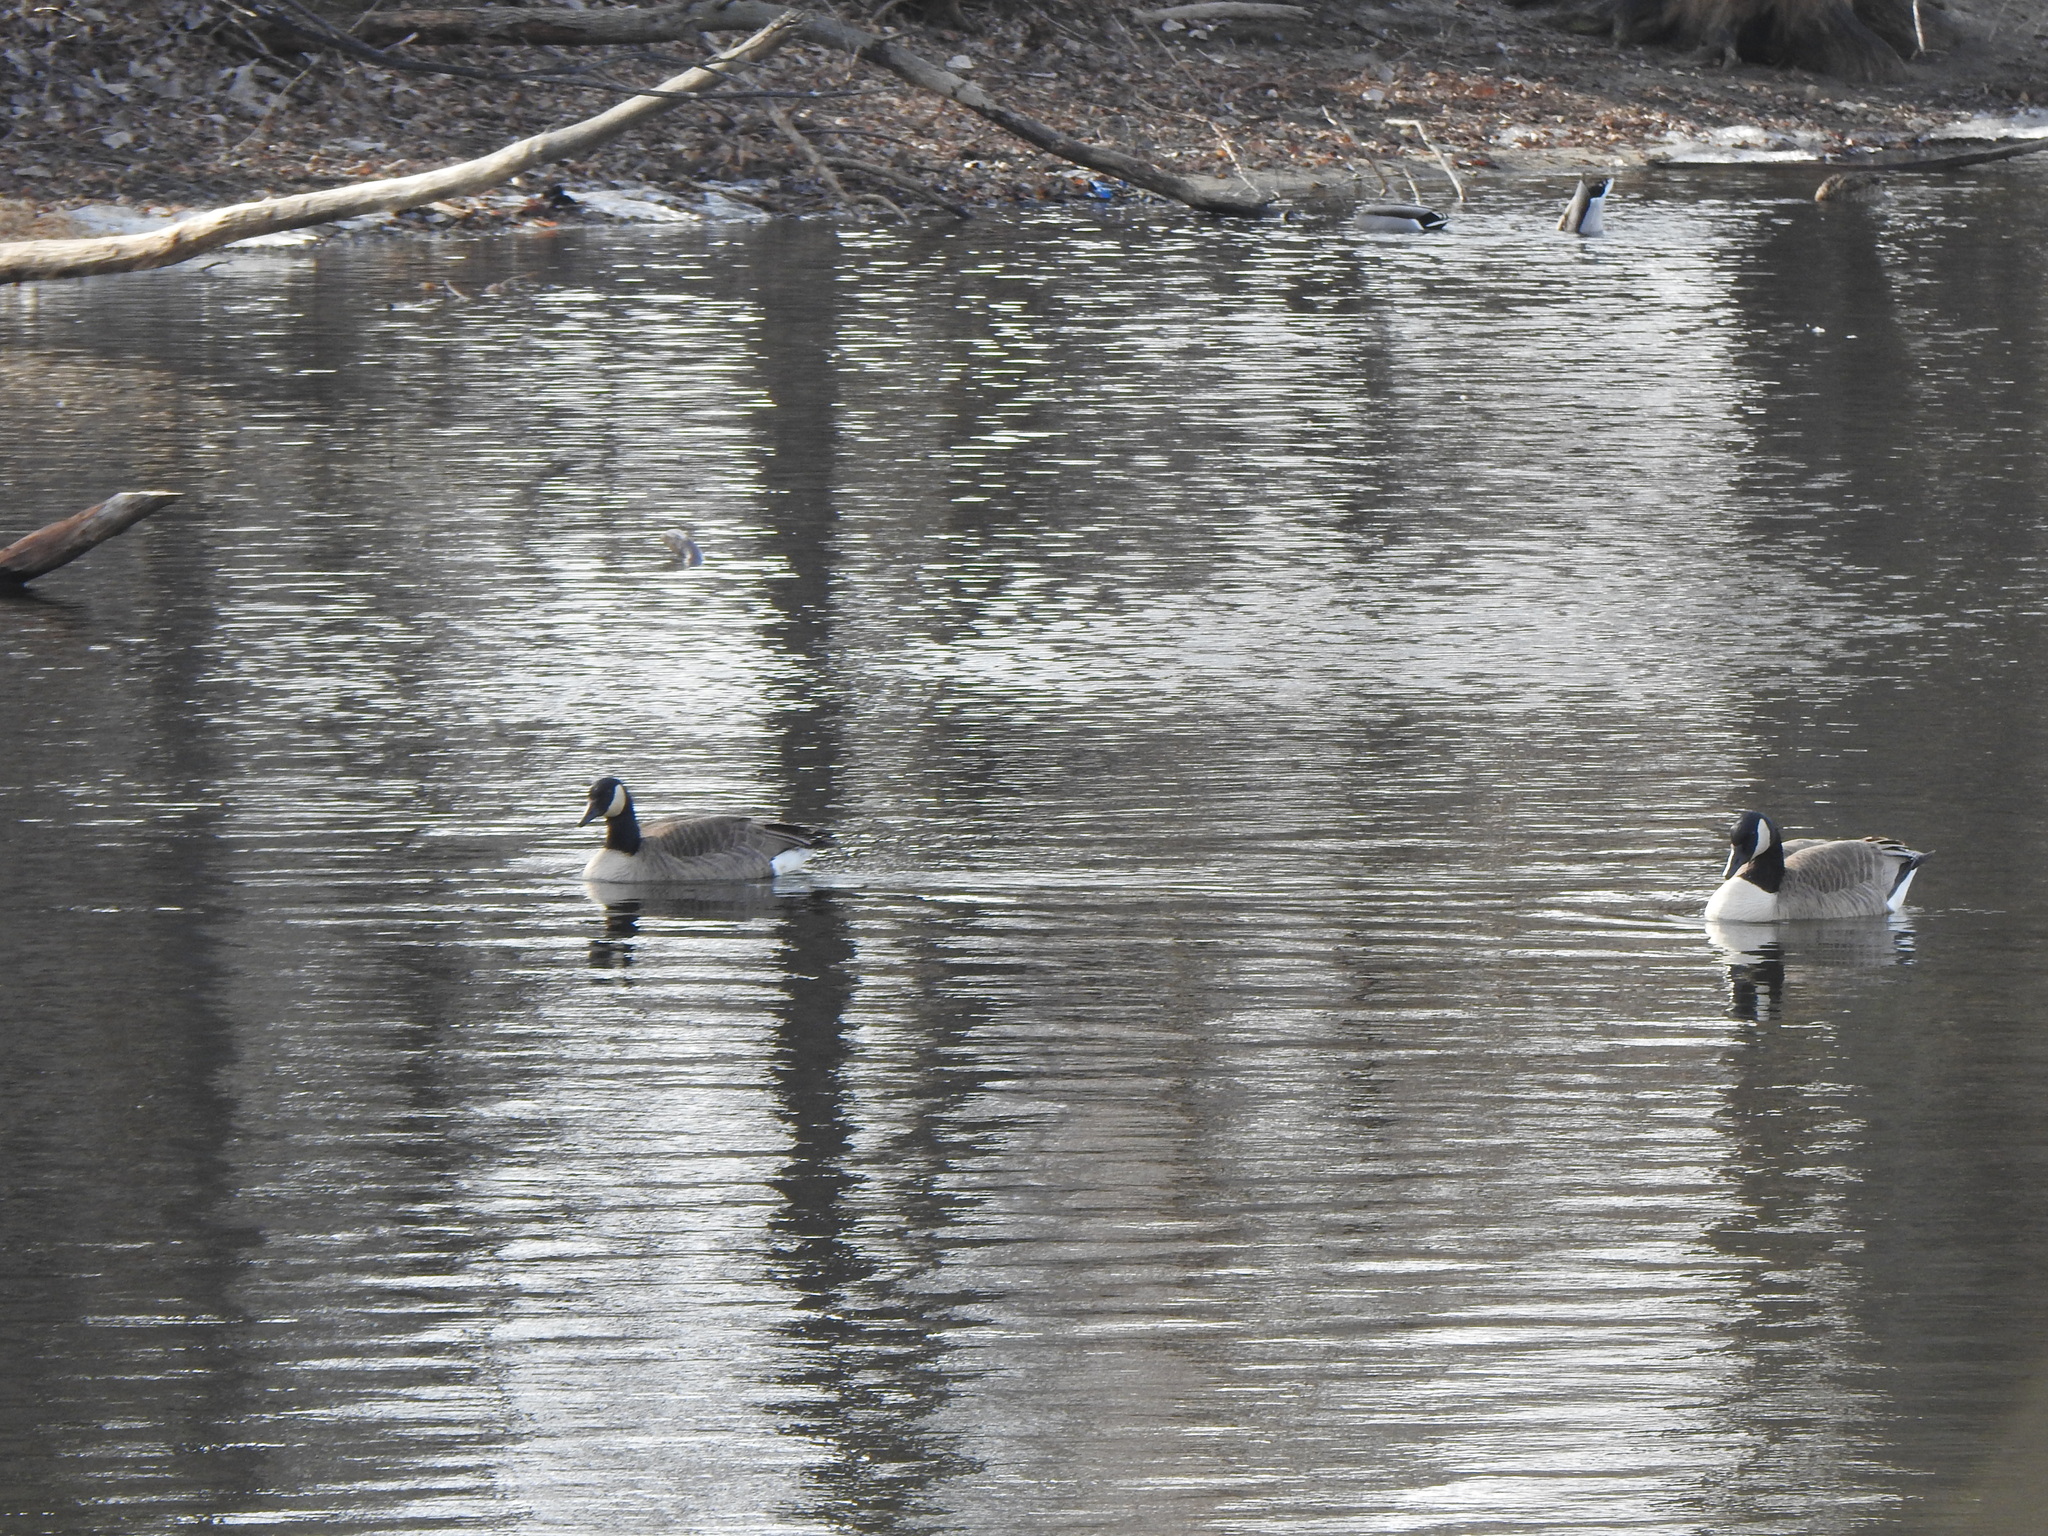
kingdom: Animalia
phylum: Chordata
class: Aves
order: Anseriformes
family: Anatidae
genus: Branta
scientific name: Branta canadensis
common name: Canada goose
